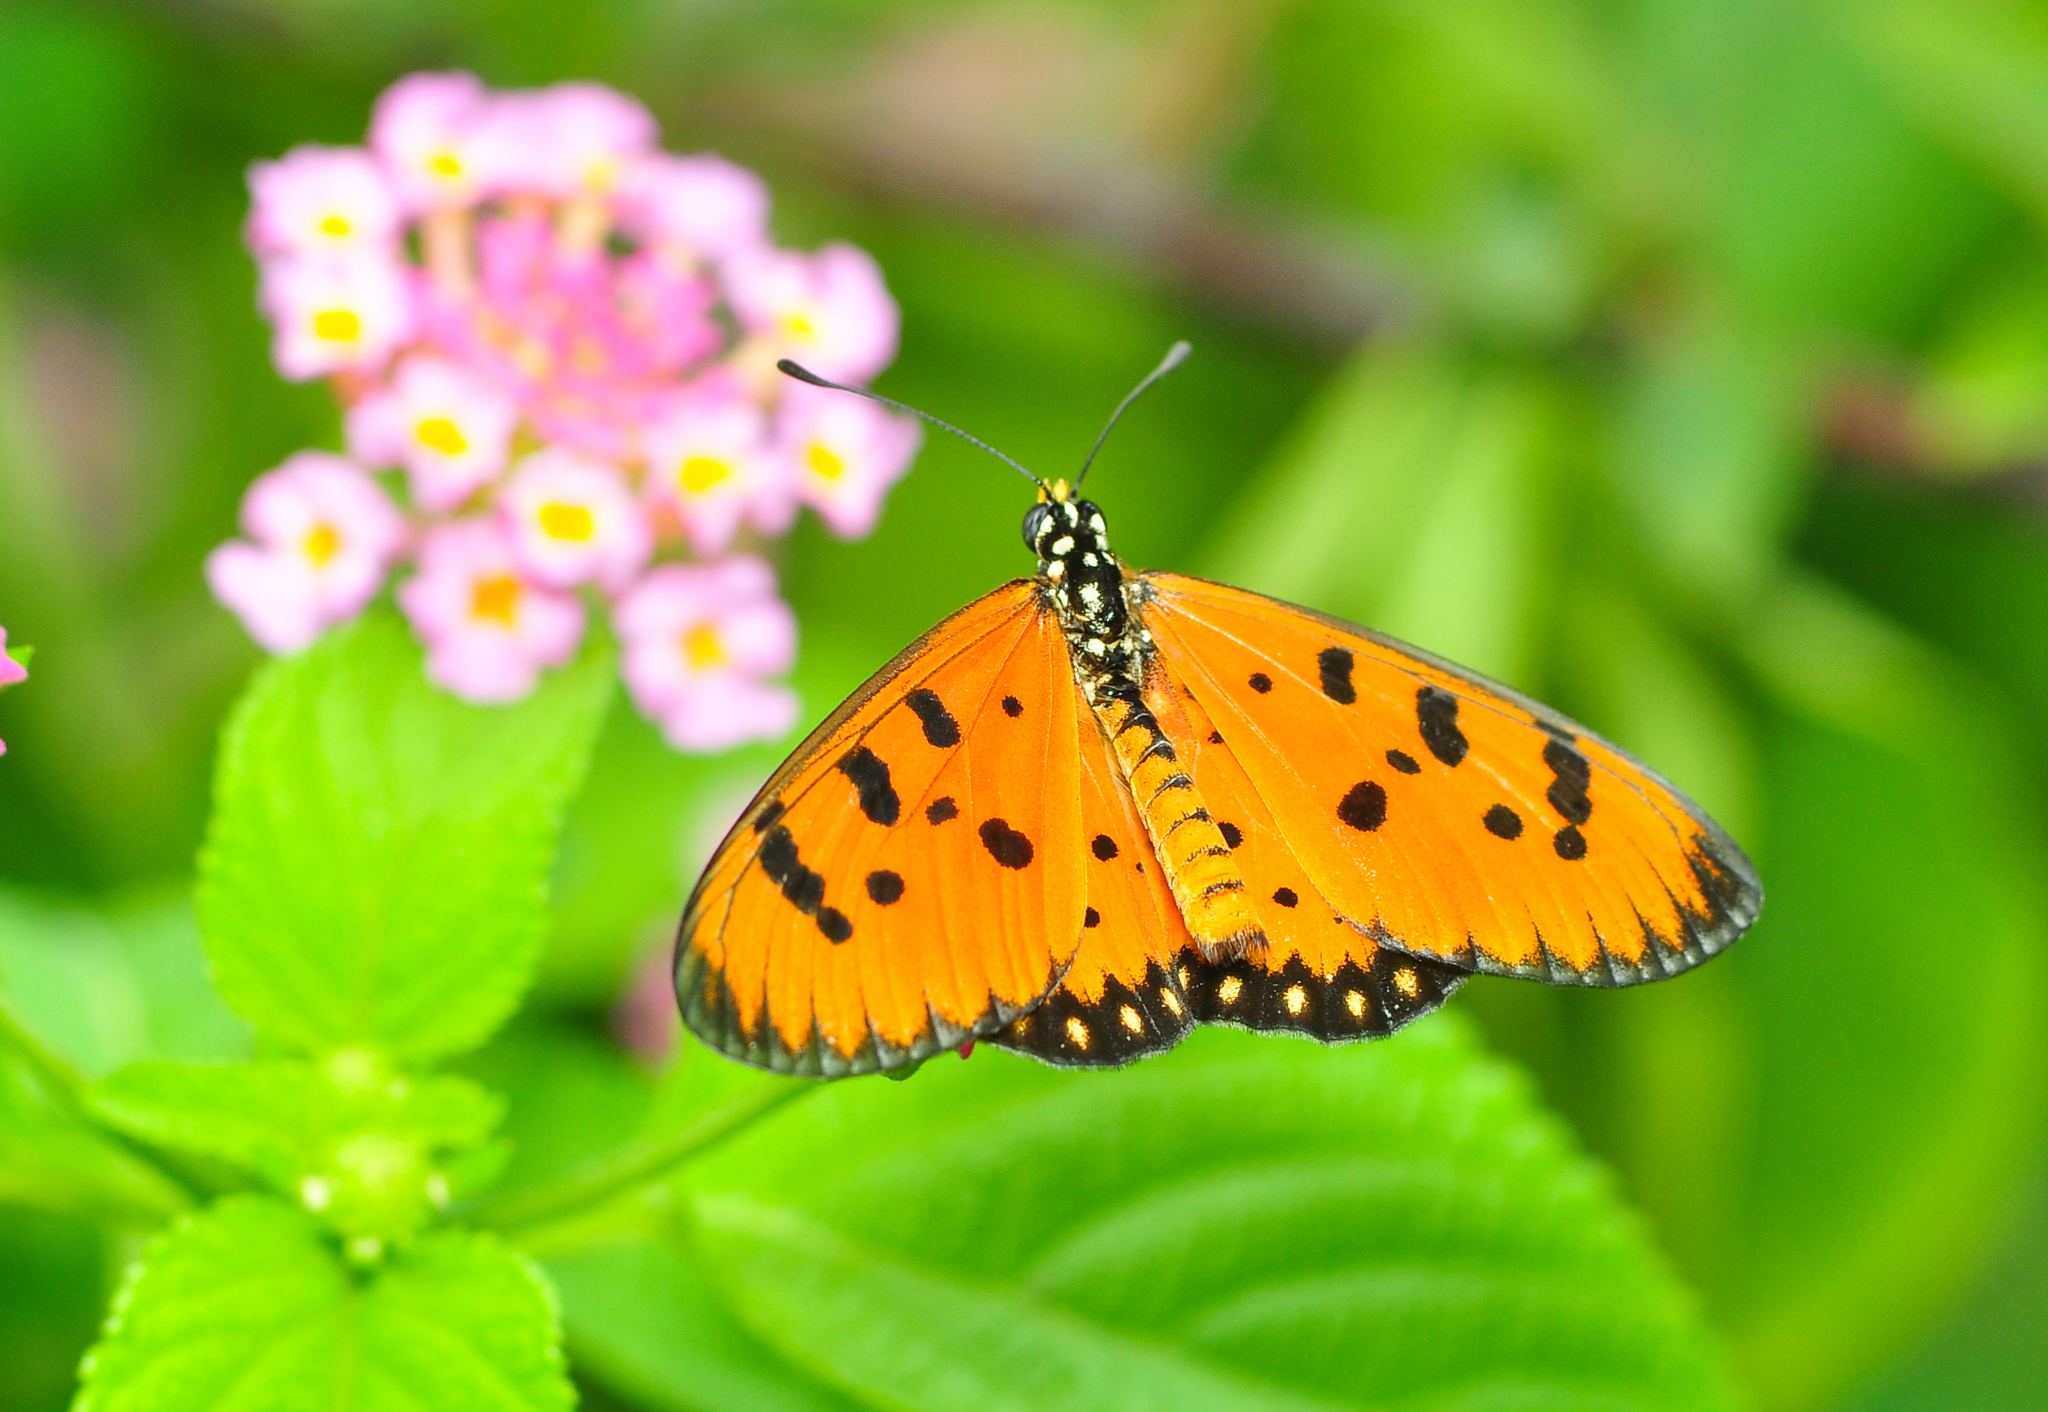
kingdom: Animalia
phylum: Arthropoda
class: Insecta
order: Lepidoptera
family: Nymphalidae
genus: Acraea
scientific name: Acraea terpsicore
